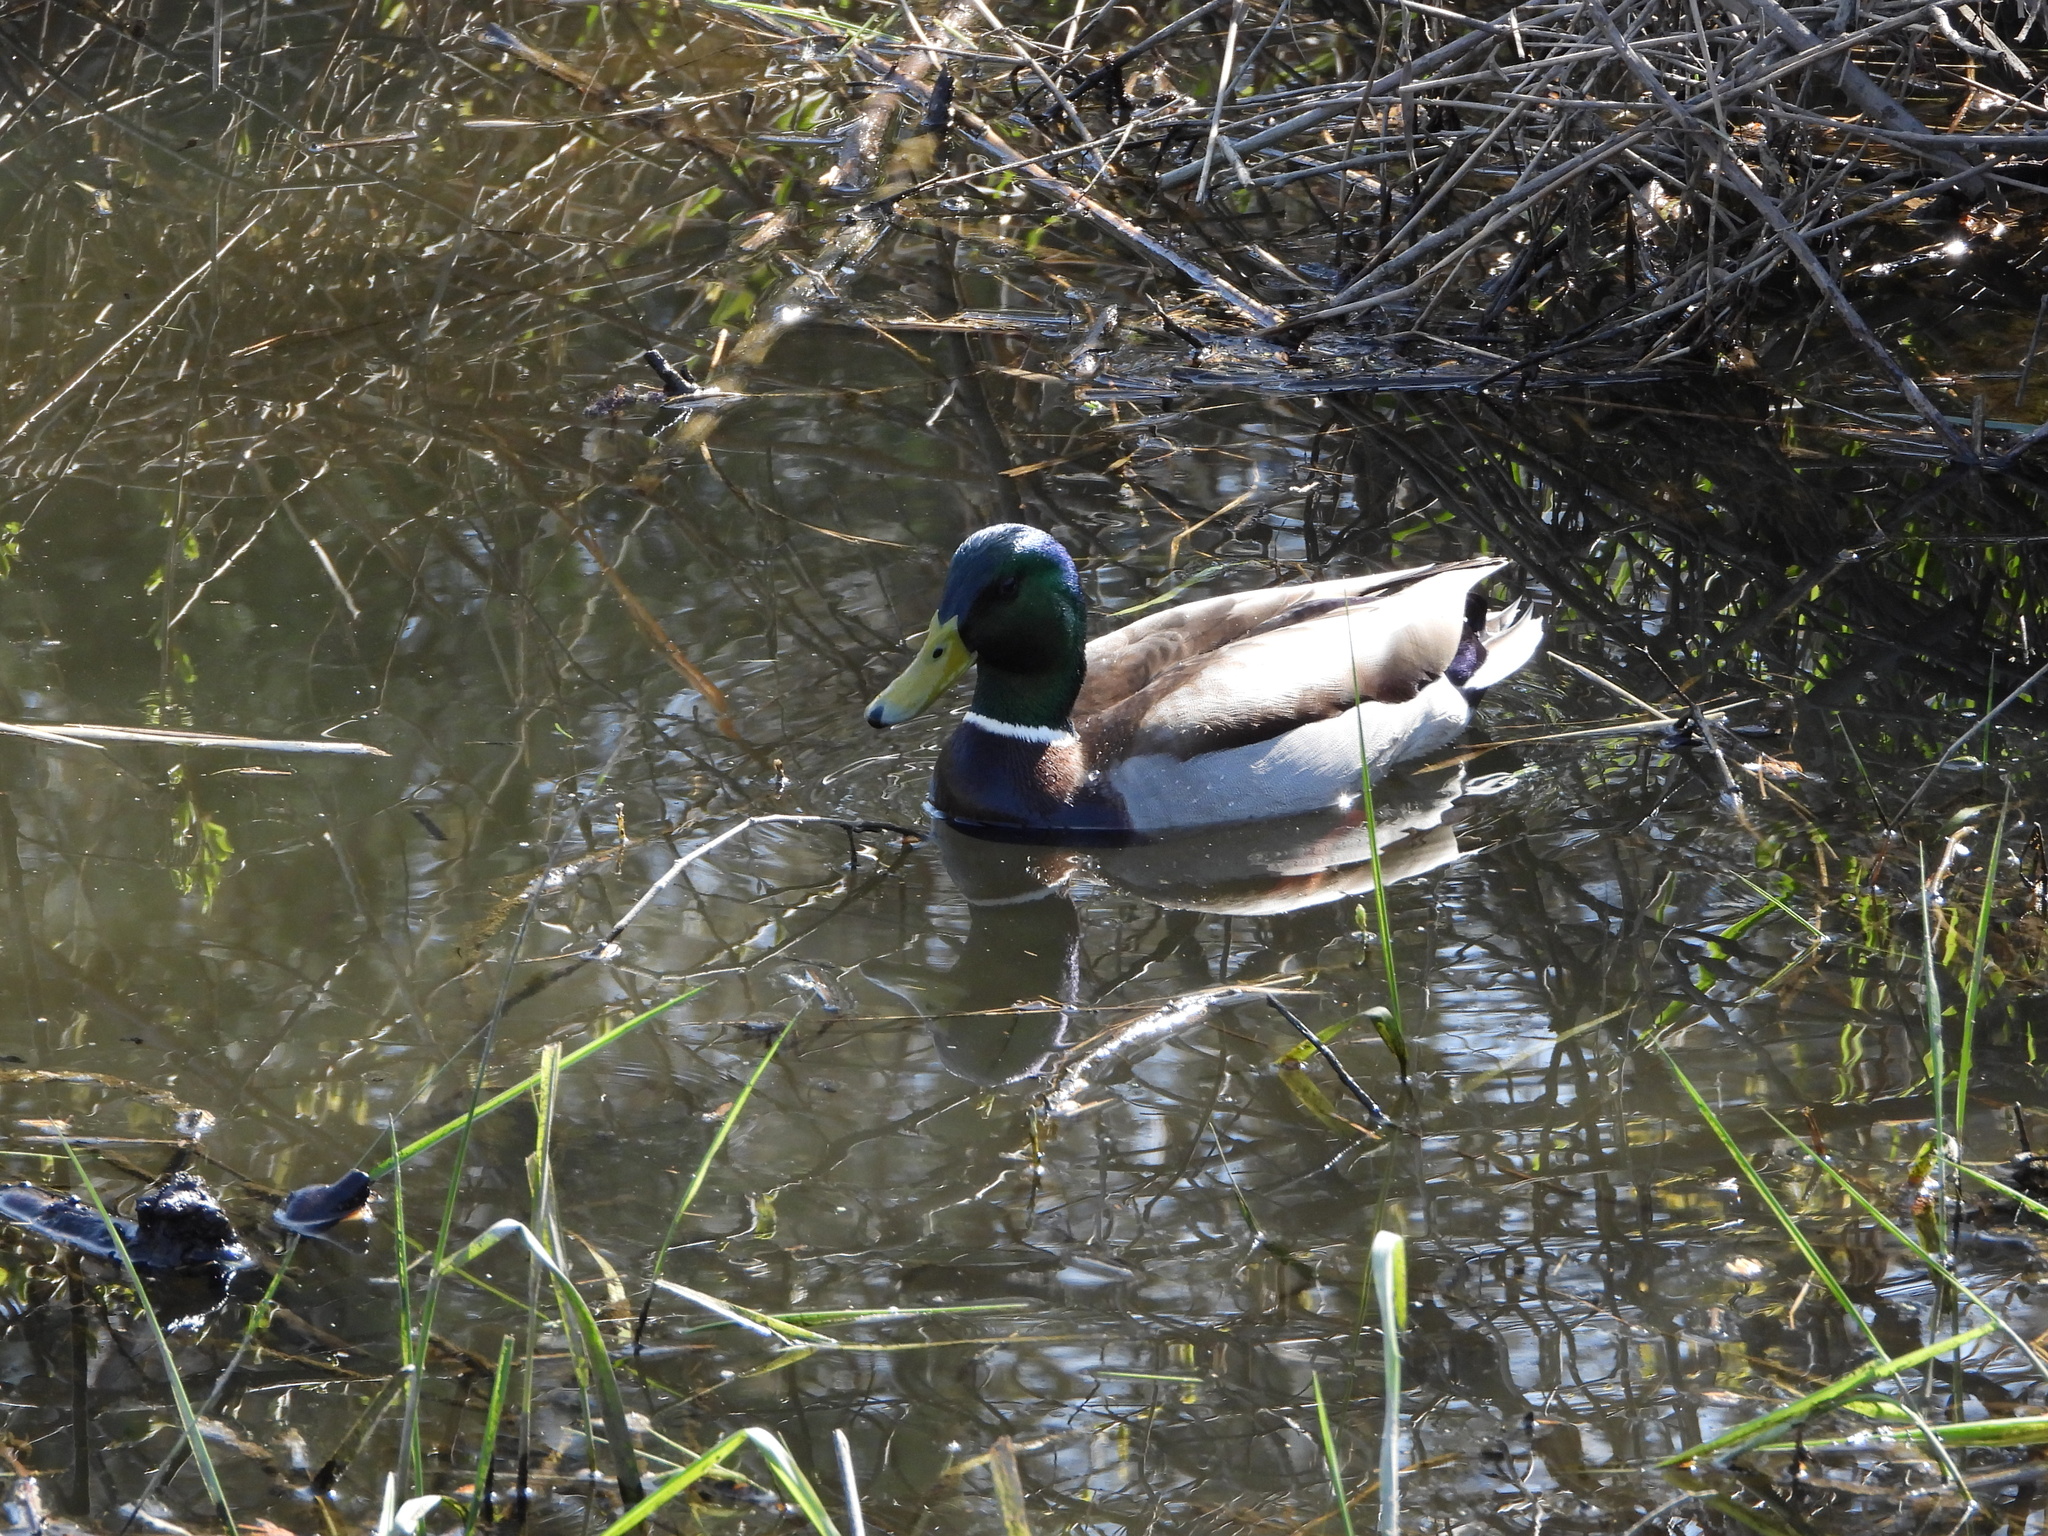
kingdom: Animalia
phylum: Chordata
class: Aves
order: Anseriformes
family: Anatidae
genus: Anas
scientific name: Anas platyrhynchos
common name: Mallard
